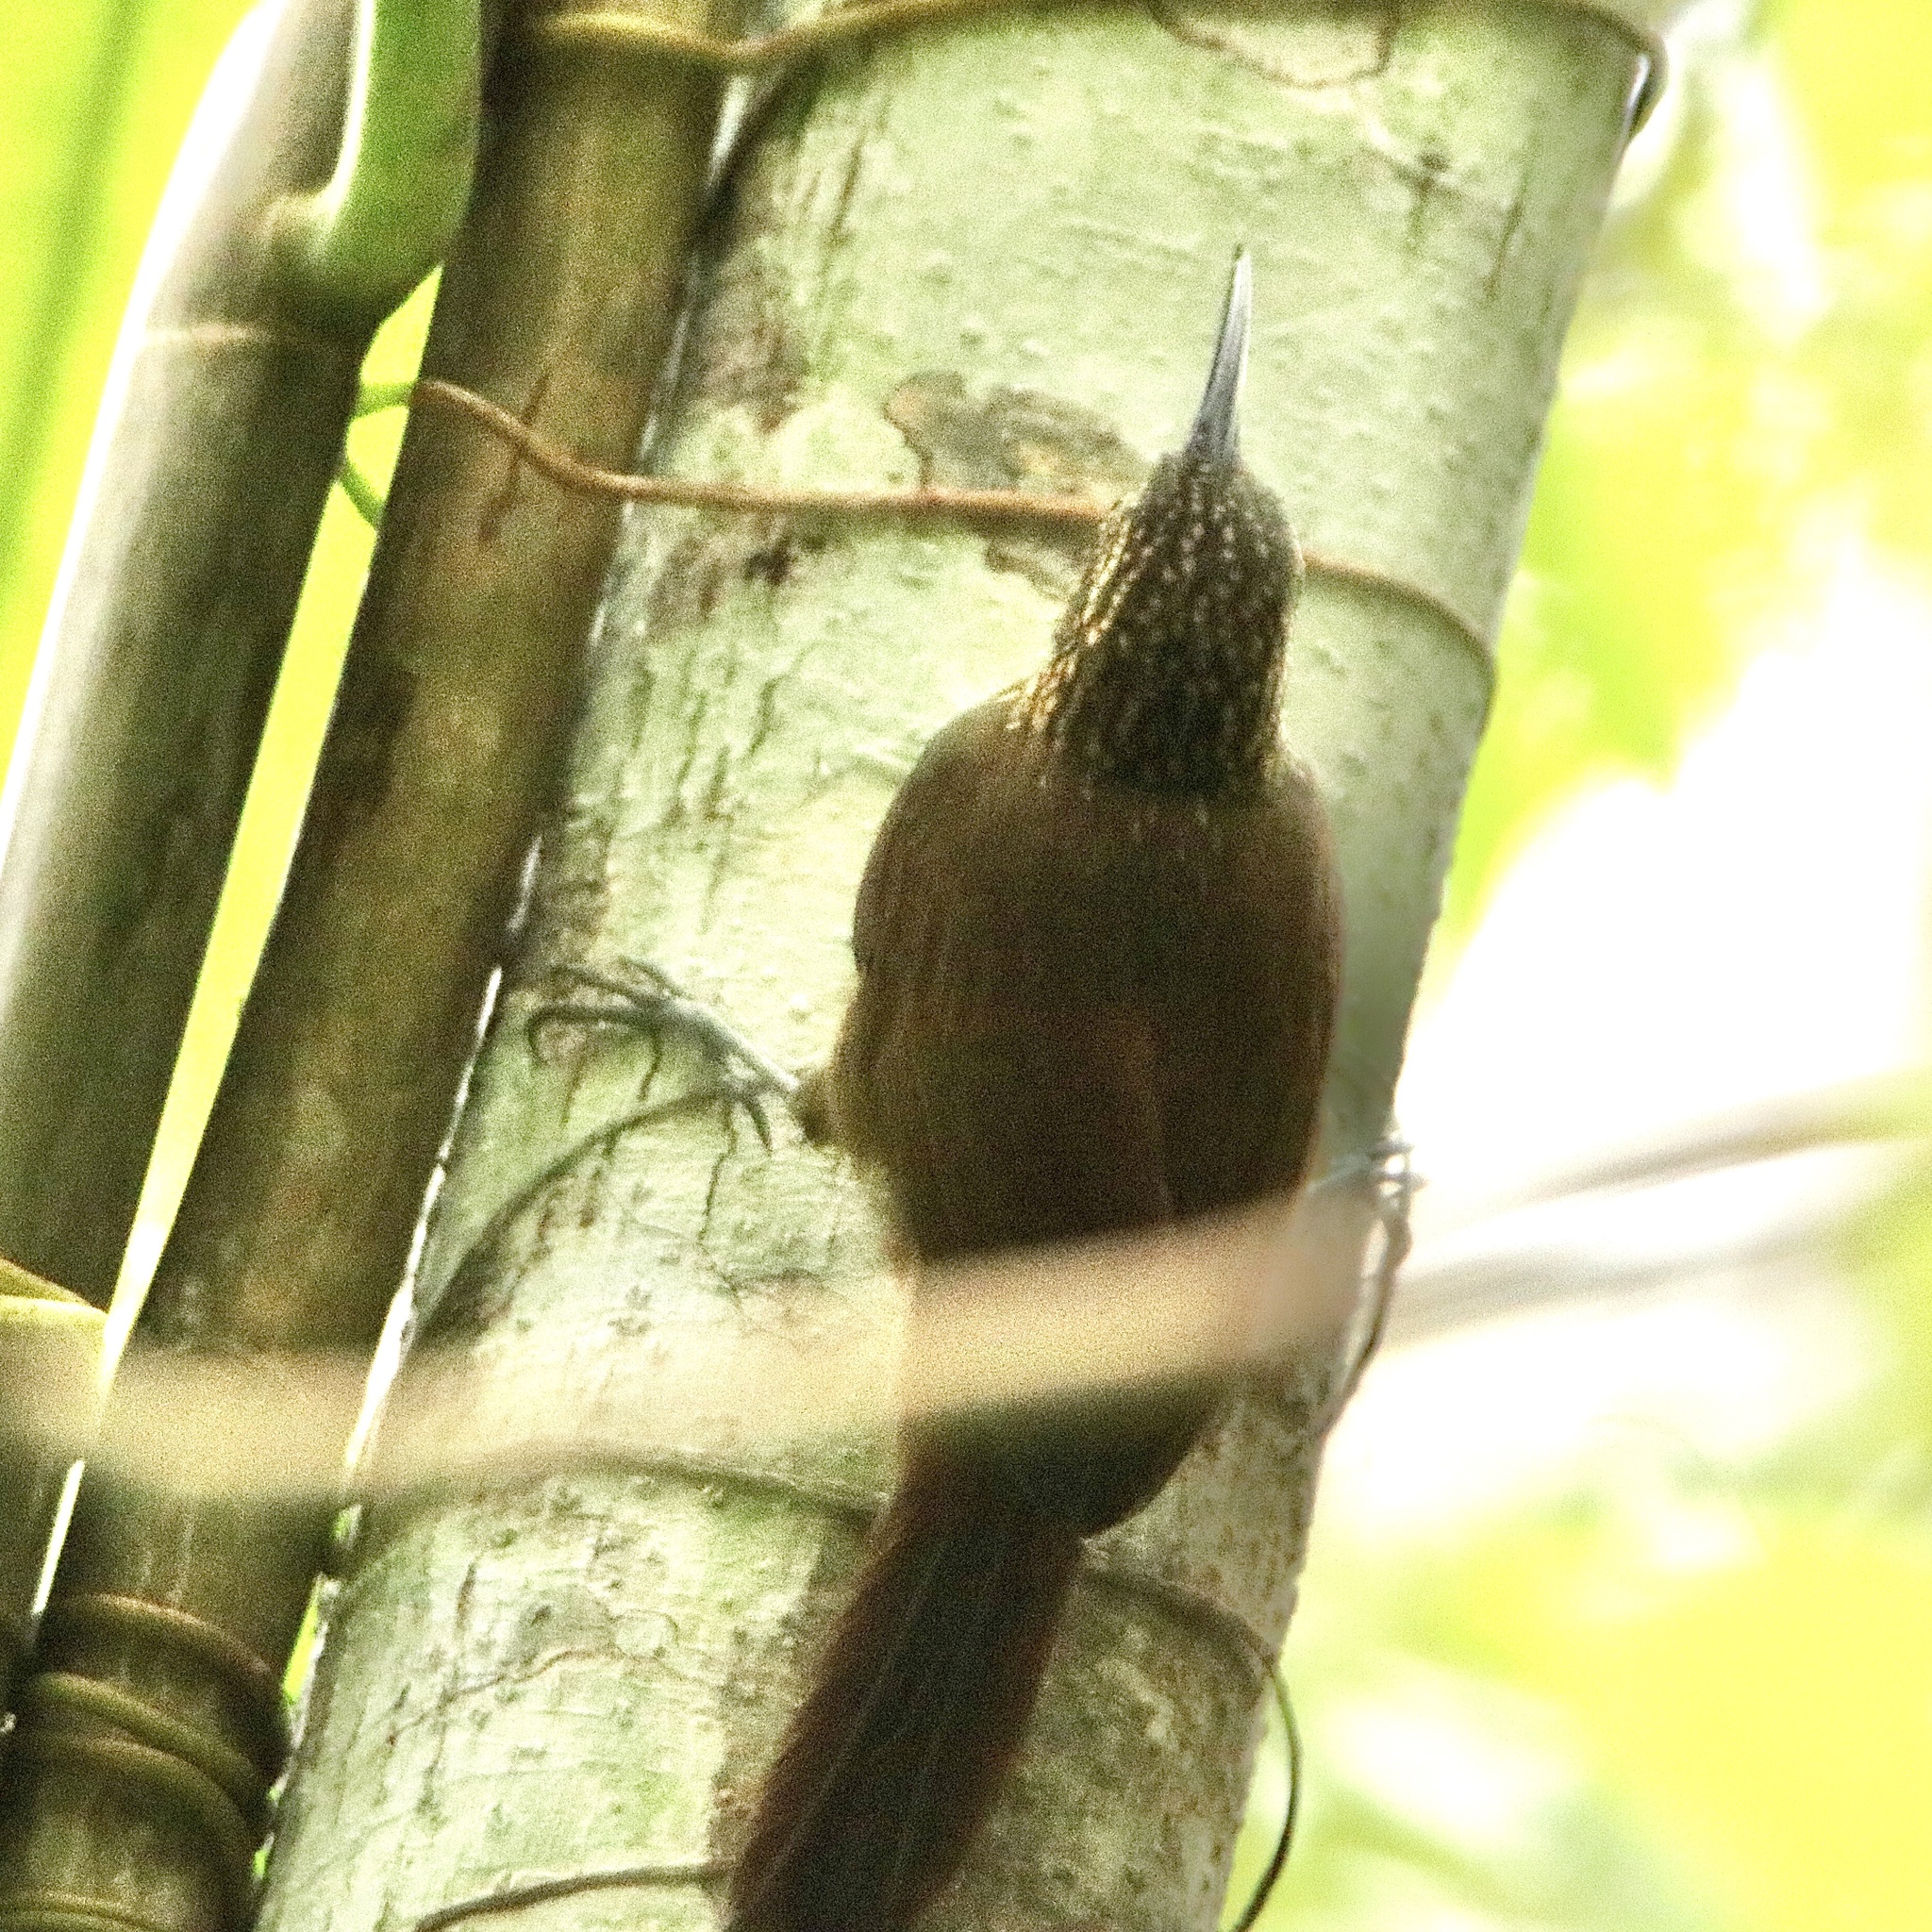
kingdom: Animalia
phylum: Chordata
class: Aves
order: Passeriformes
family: Furnariidae
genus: Xiphorhynchus
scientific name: Xiphorhynchus susurrans
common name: Cocoa woodcreeper
